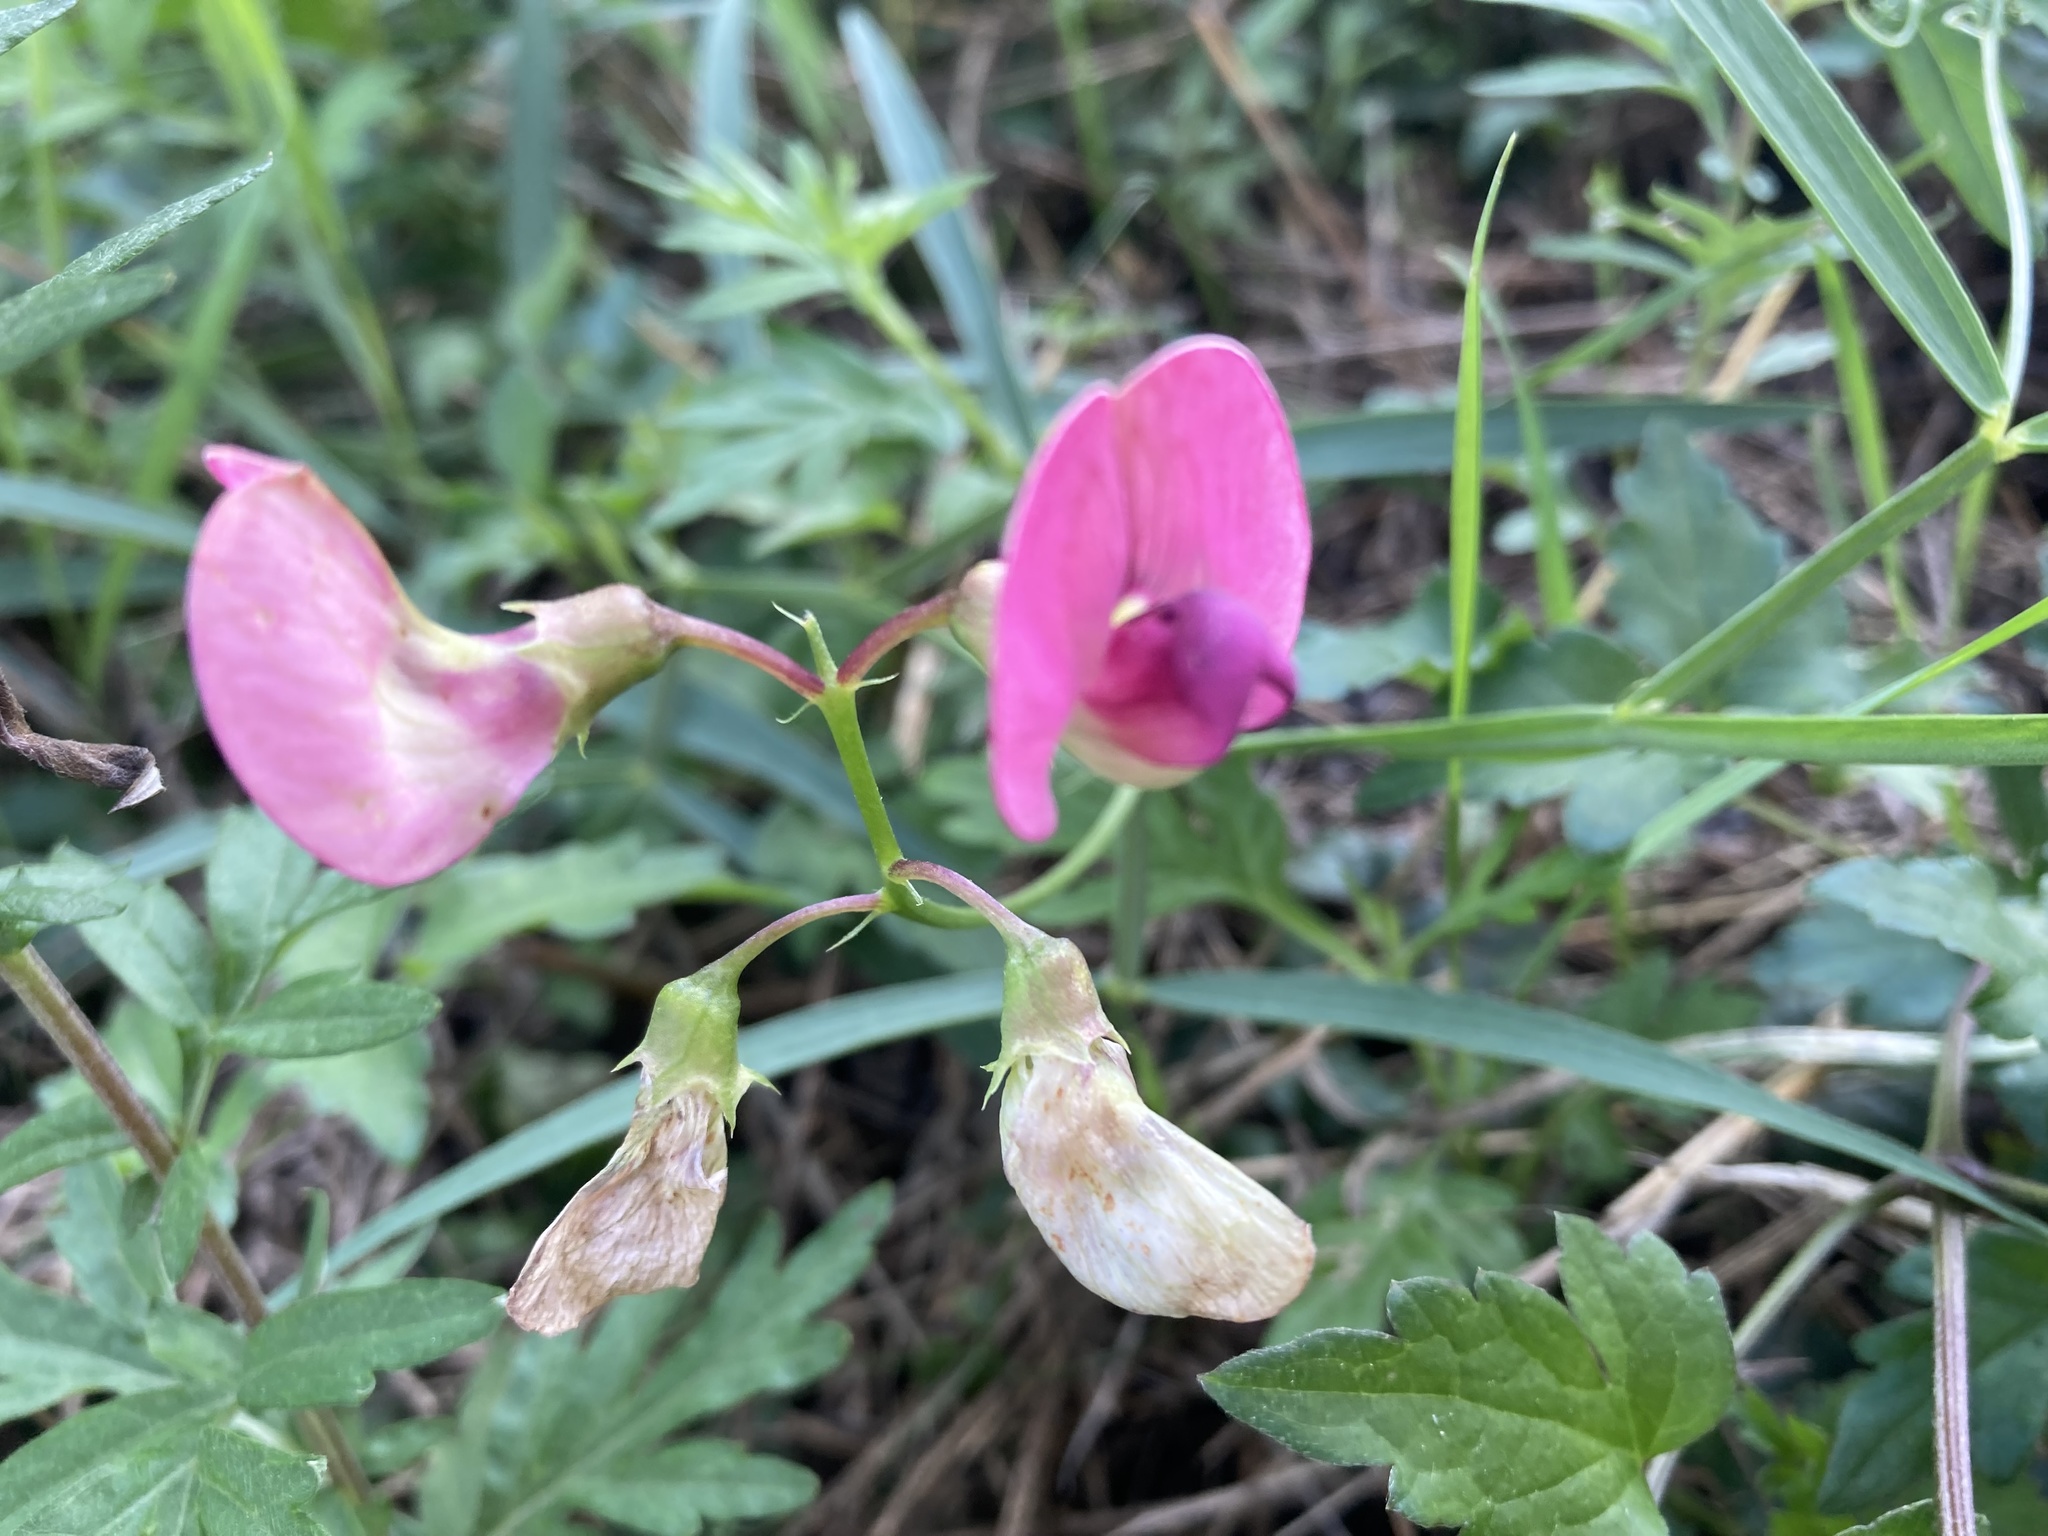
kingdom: Plantae
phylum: Tracheophyta
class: Magnoliopsida
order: Fabales
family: Fabaceae
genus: Lathyrus
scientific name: Lathyrus sylvestris
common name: Flat pea
